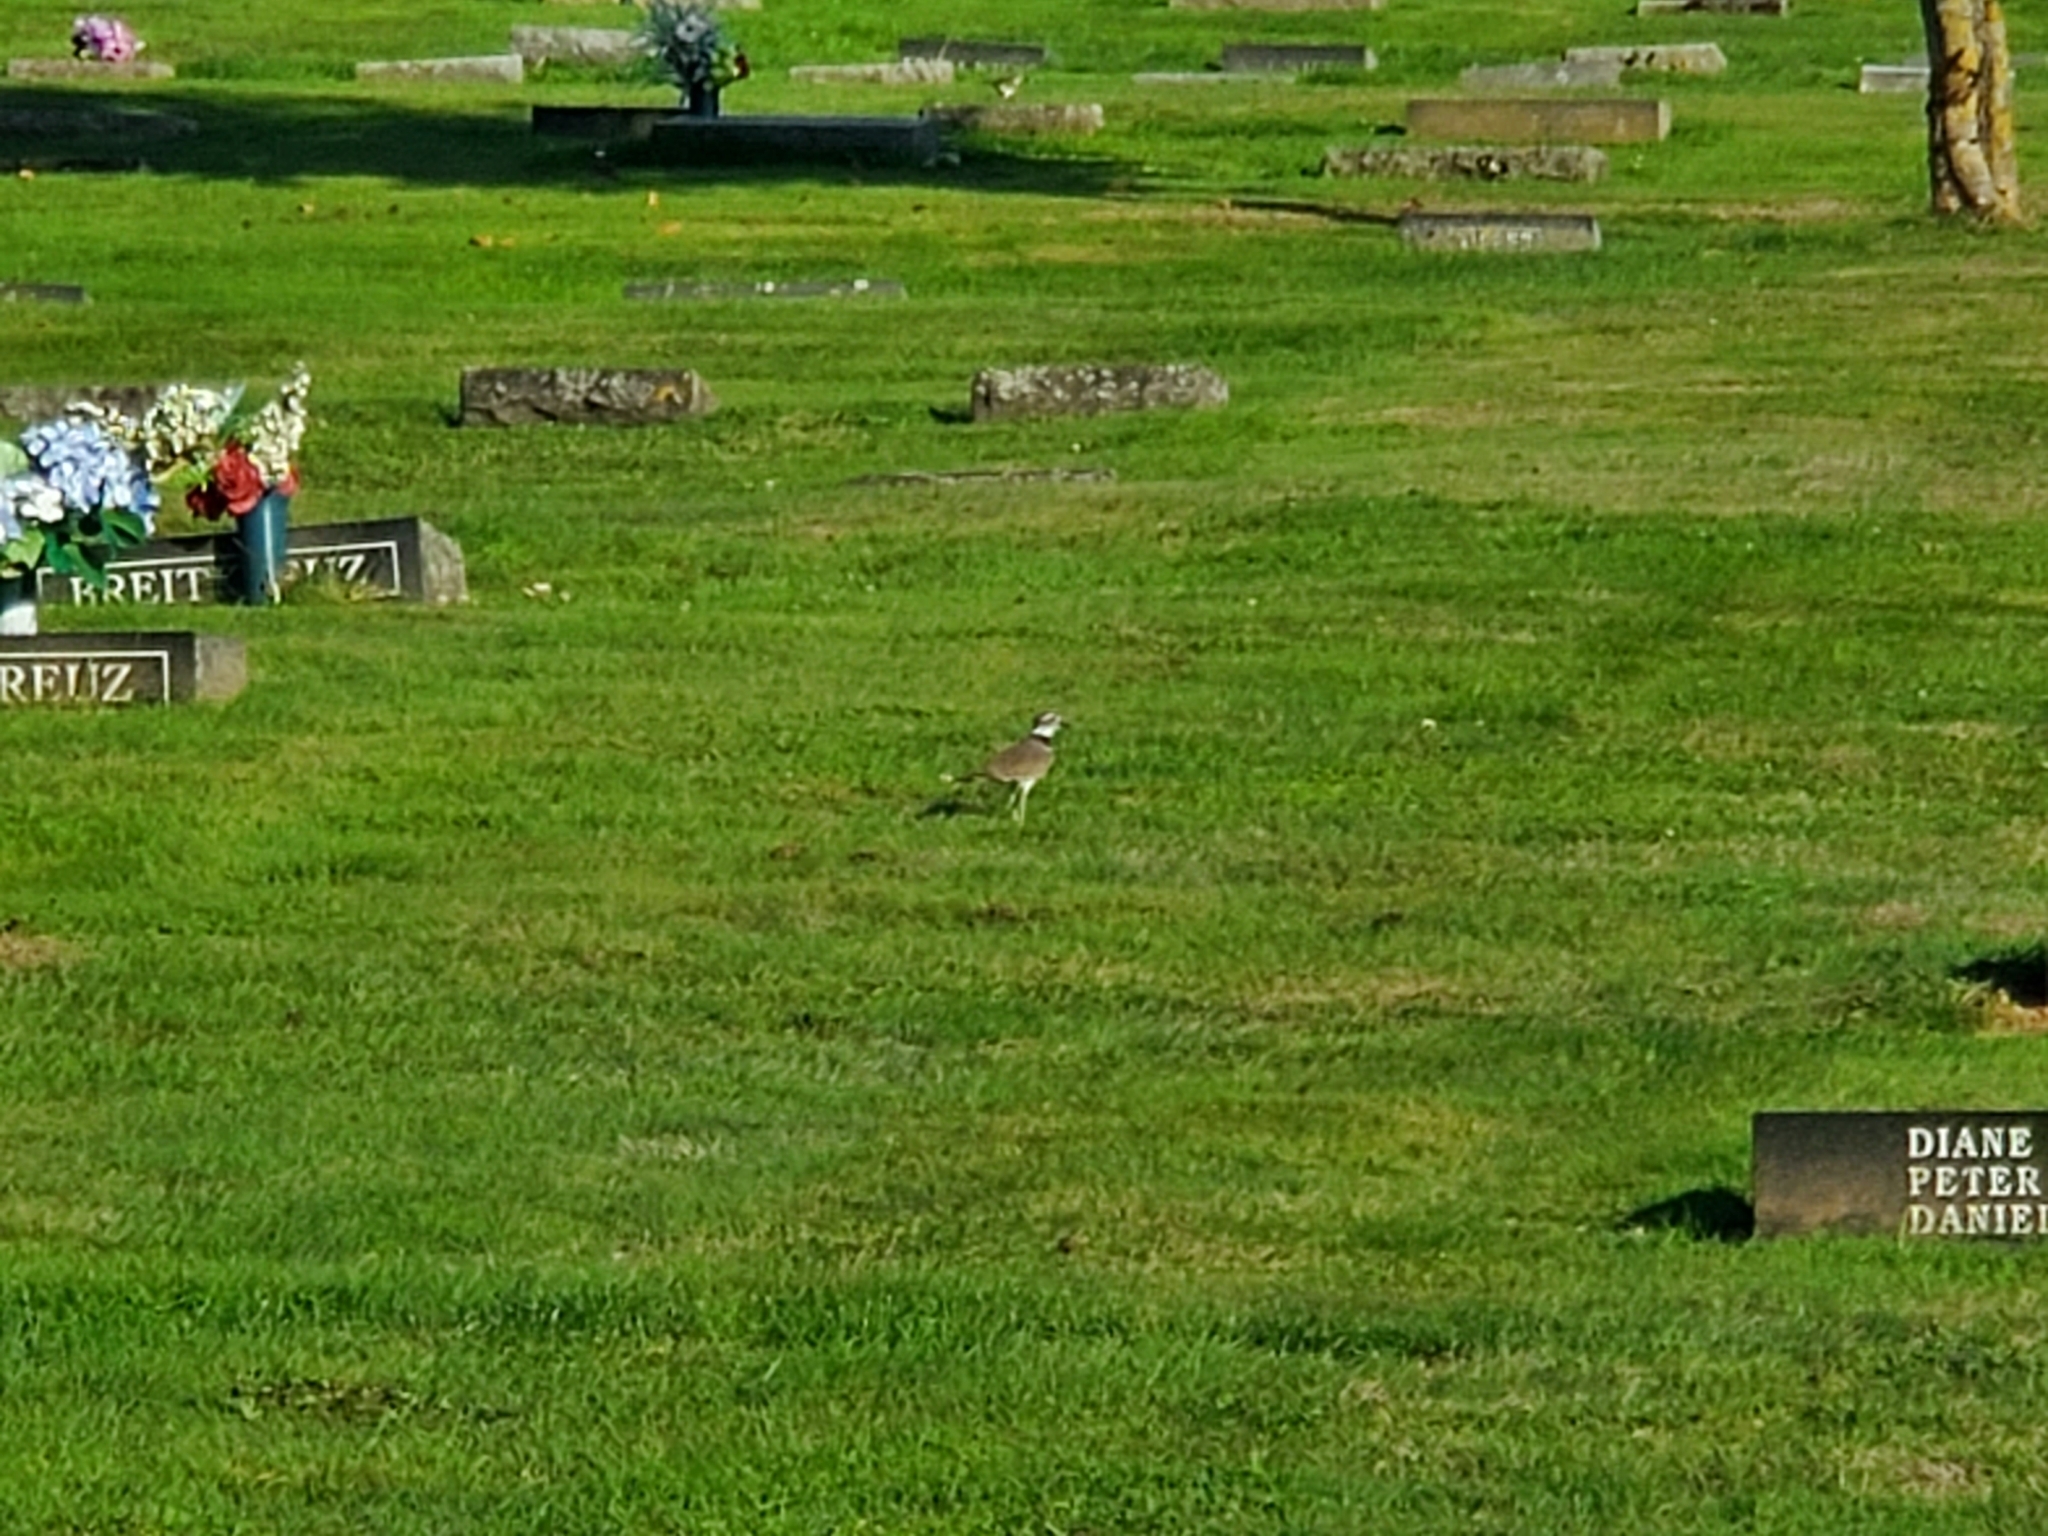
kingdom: Animalia
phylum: Chordata
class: Aves
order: Charadriiformes
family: Charadriidae
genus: Charadrius
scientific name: Charadrius vociferus
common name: Killdeer
